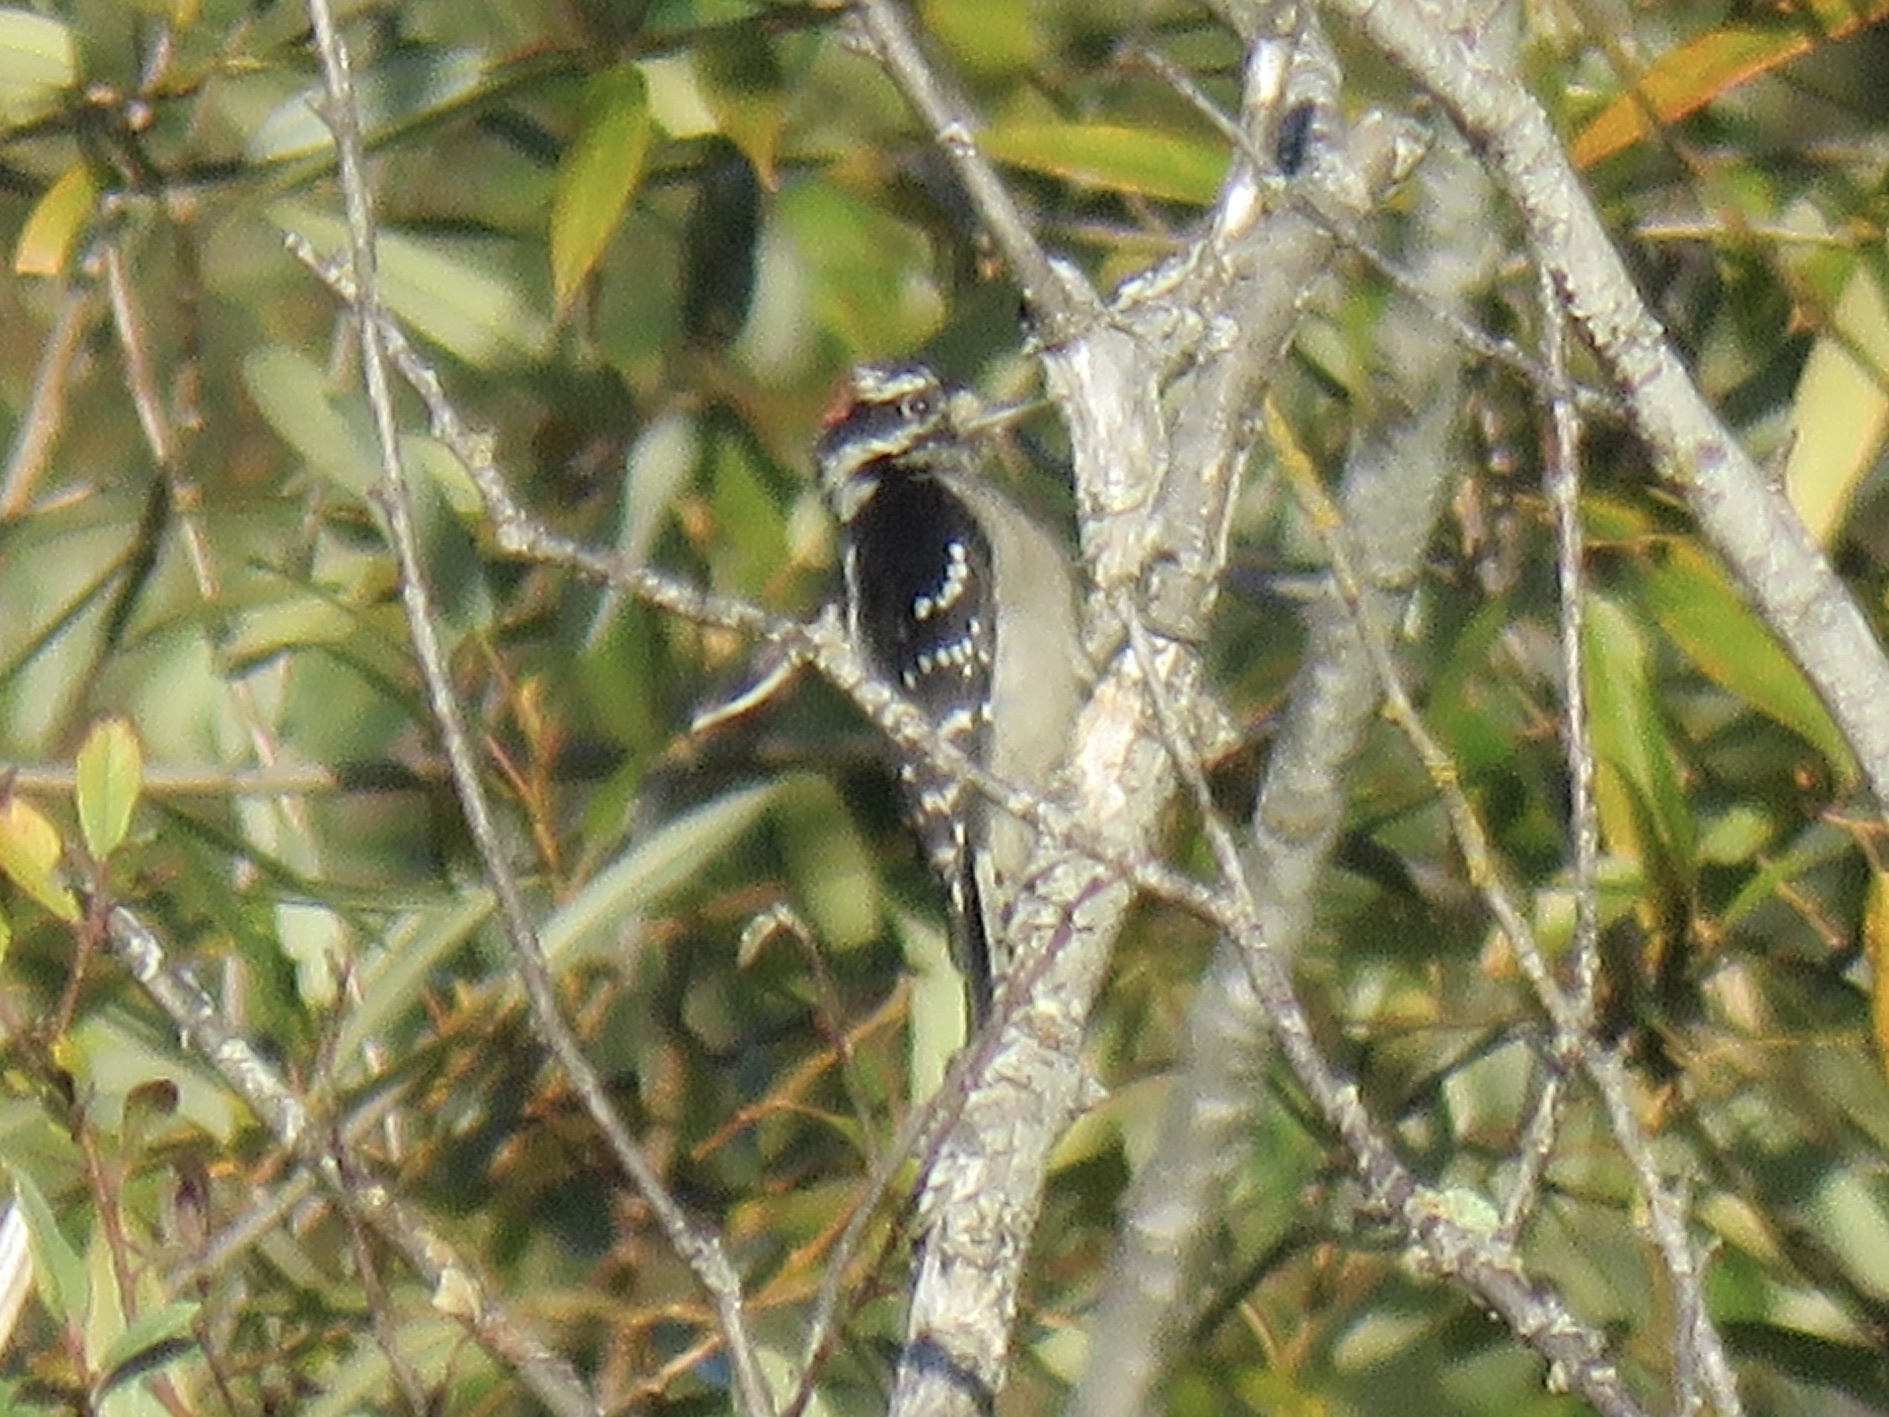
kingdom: Animalia
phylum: Chordata
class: Aves
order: Piciformes
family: Picidae
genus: Dryobates
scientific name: Dryobates pubescens
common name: Downy woodpecker
